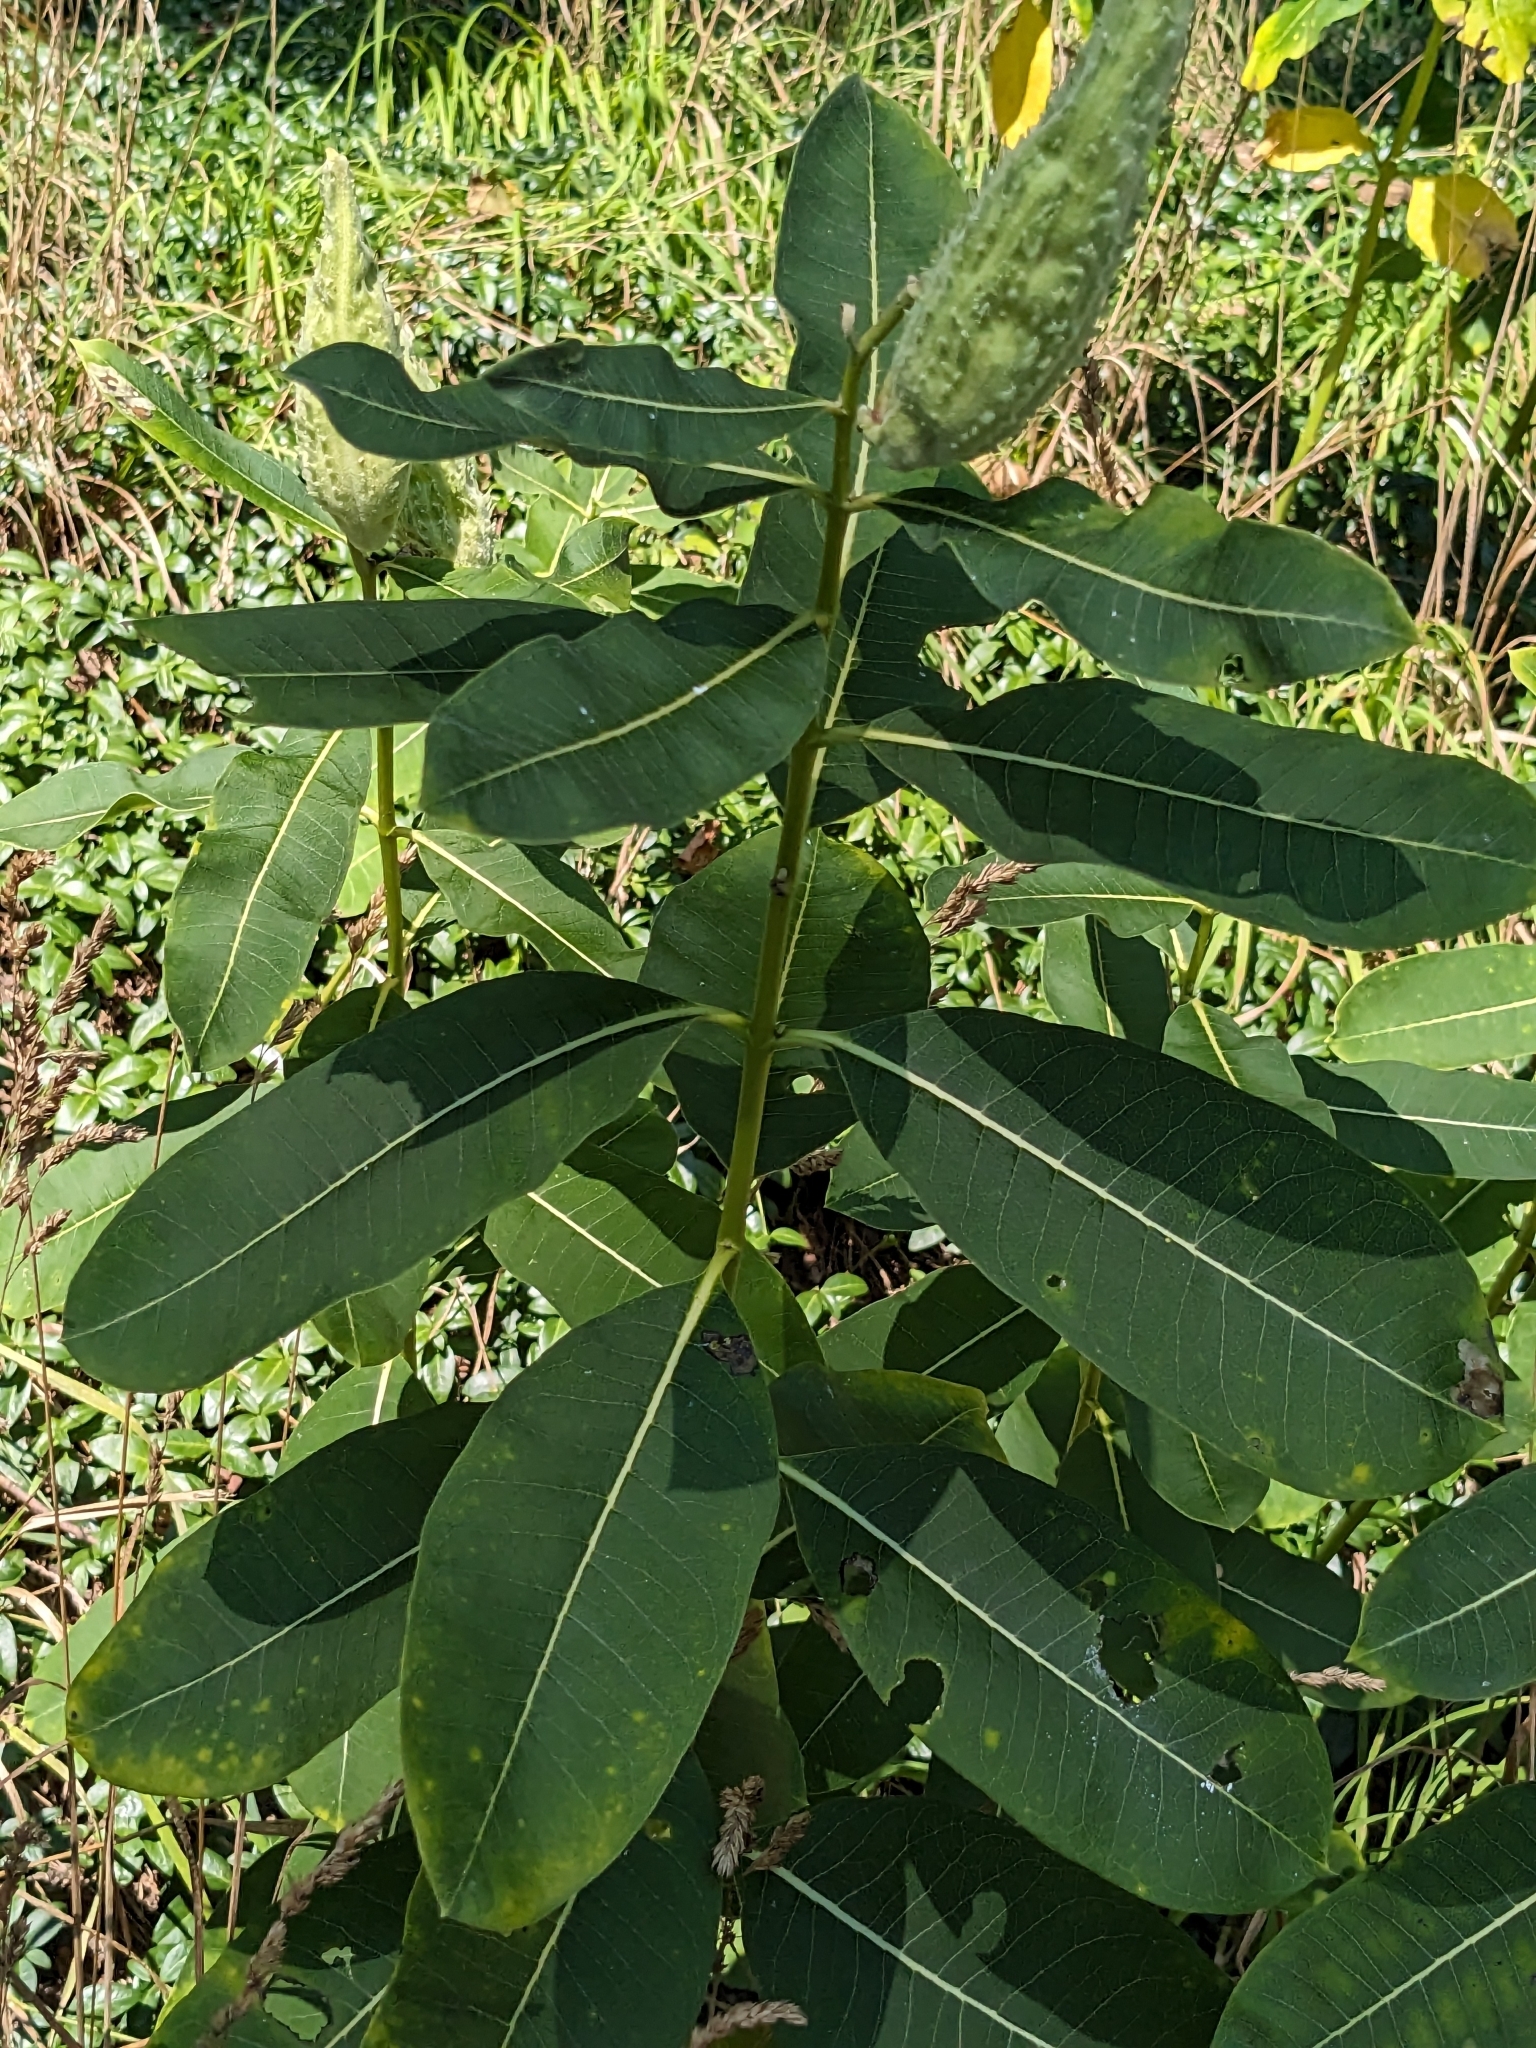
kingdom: Plantae
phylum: Tracheophyta
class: Magnoliopsida
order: Gentianales
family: Apocynaceae
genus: Asclepias
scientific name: Asclepias syriaca
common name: Common milkweed
